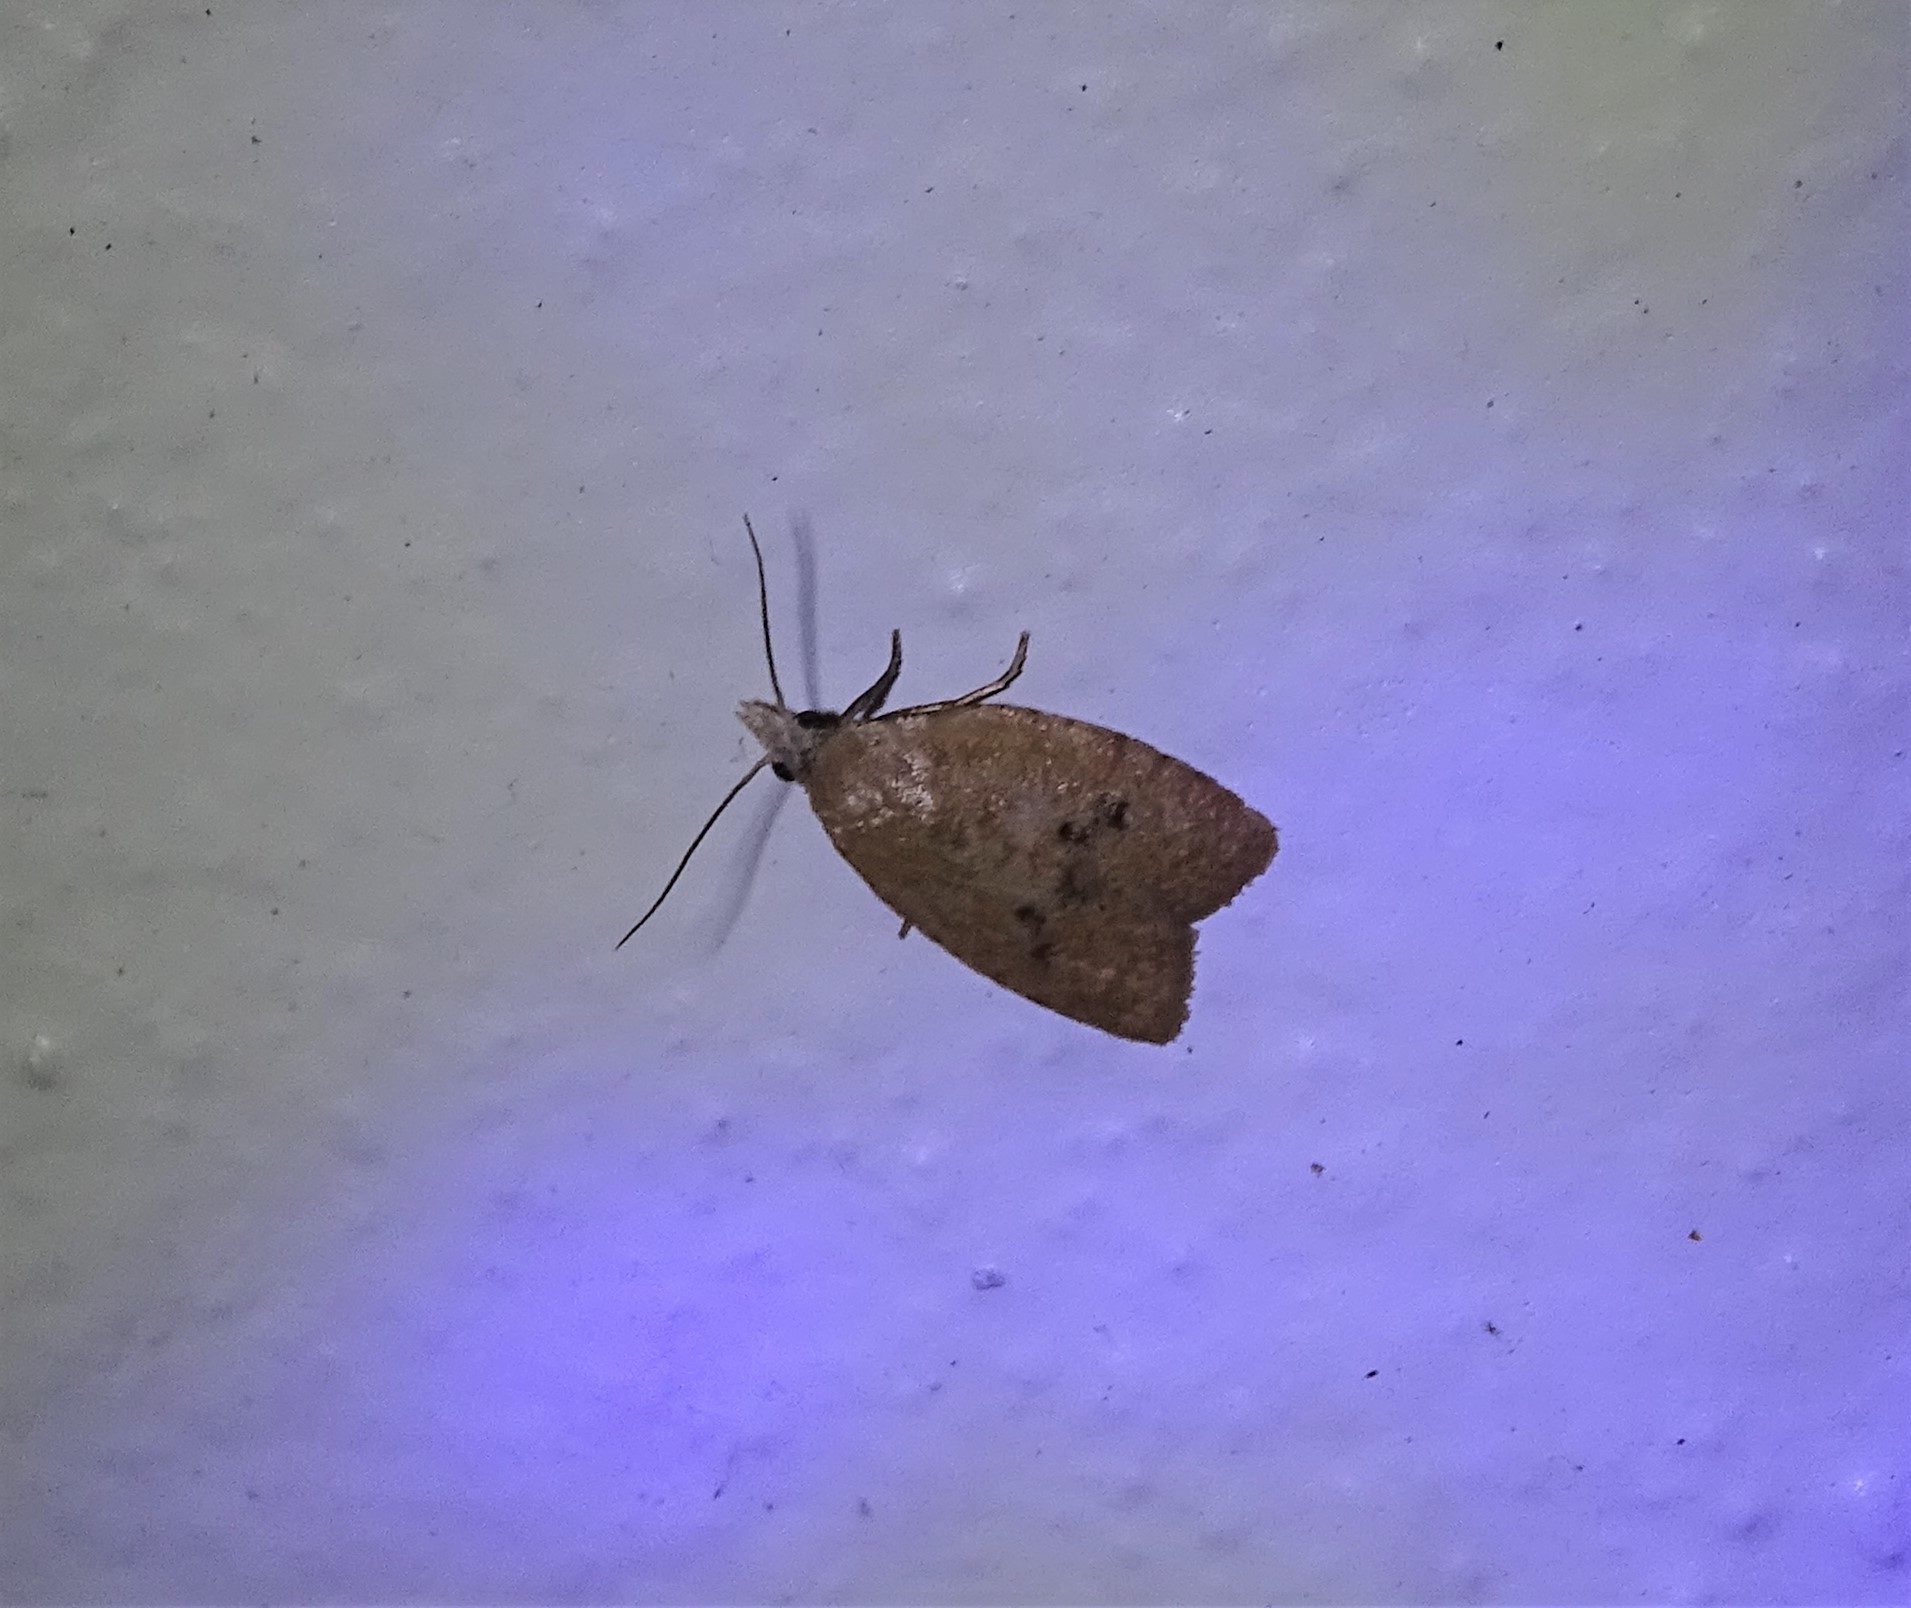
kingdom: Animalia
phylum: Arthropoda
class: Insecta
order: Lepidoptera
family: Tortricidae
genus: Sparganothoides
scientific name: Sparganothoides lentiginosana
